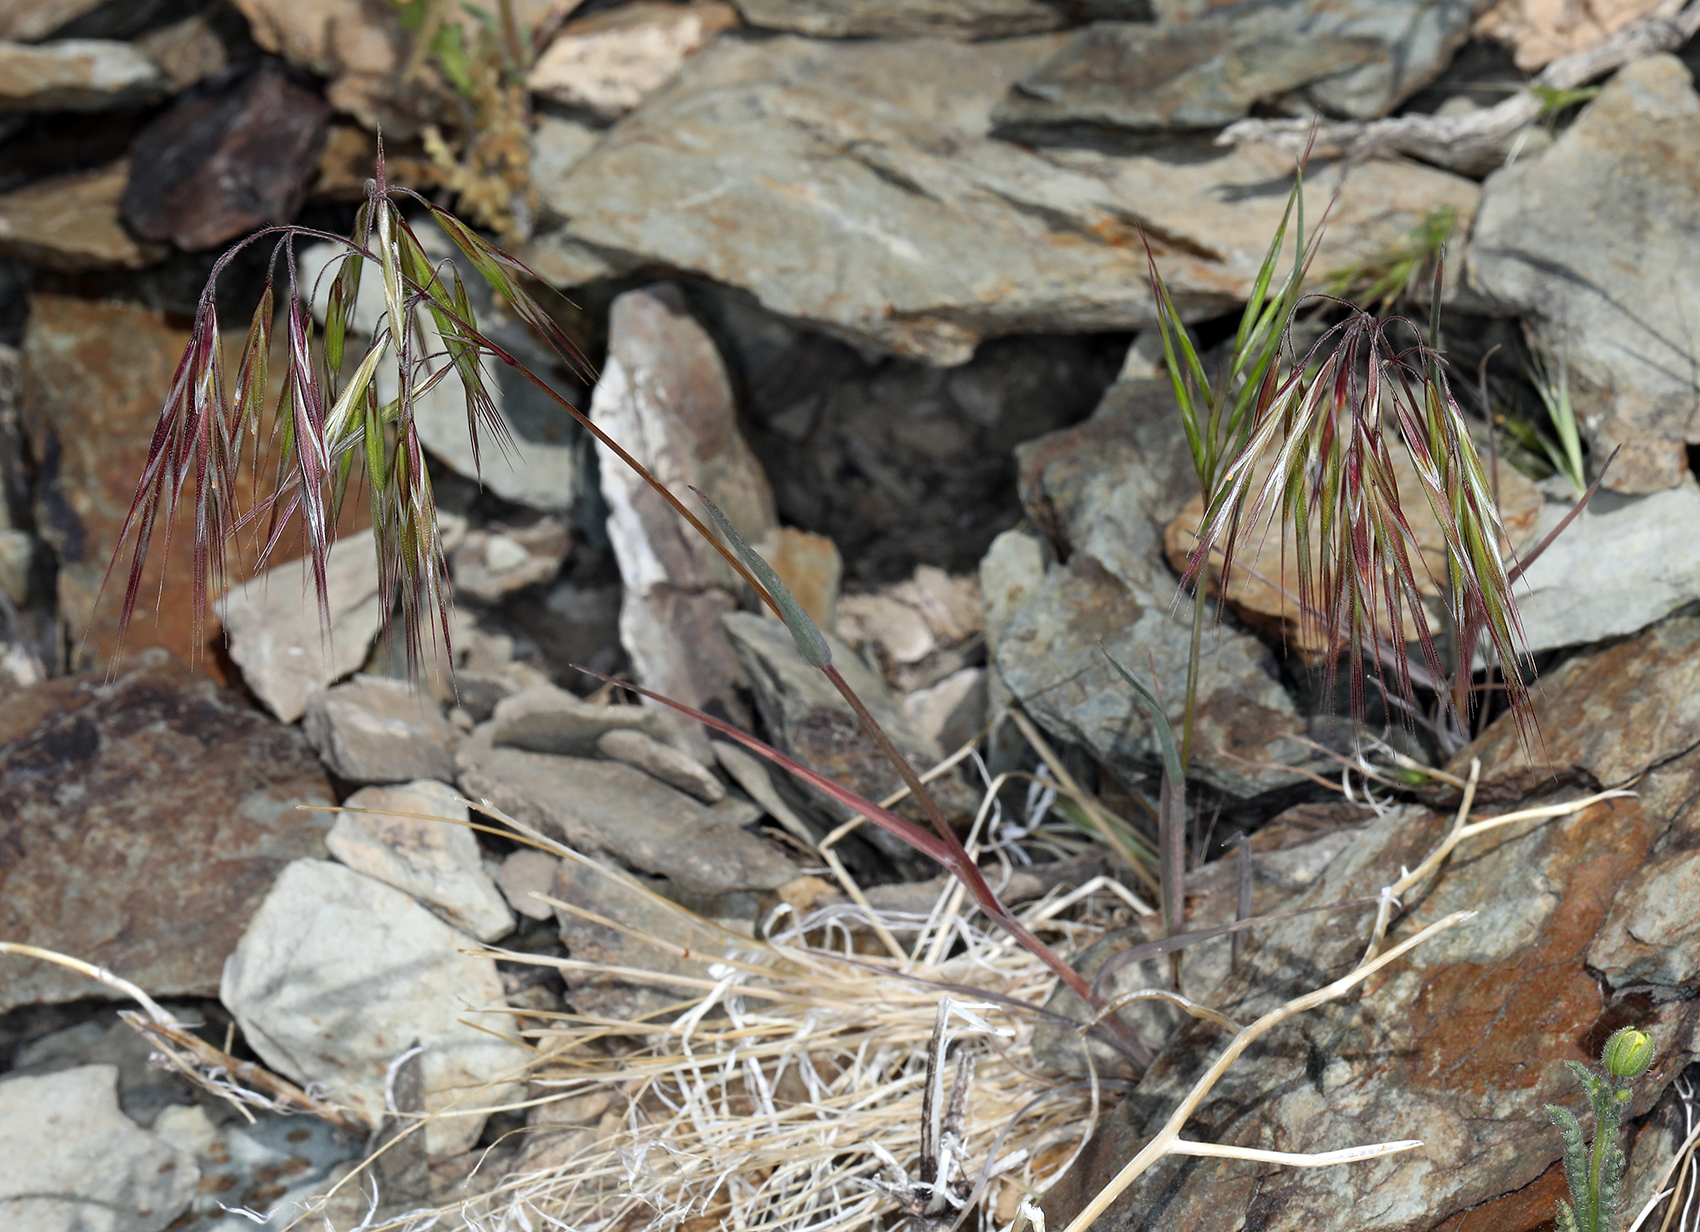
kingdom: Plantae
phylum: Tracheophyta
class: Liliopsida
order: Poales
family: Poaceae
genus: Bromus
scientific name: Bromus tectorum
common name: Cheatgrass
